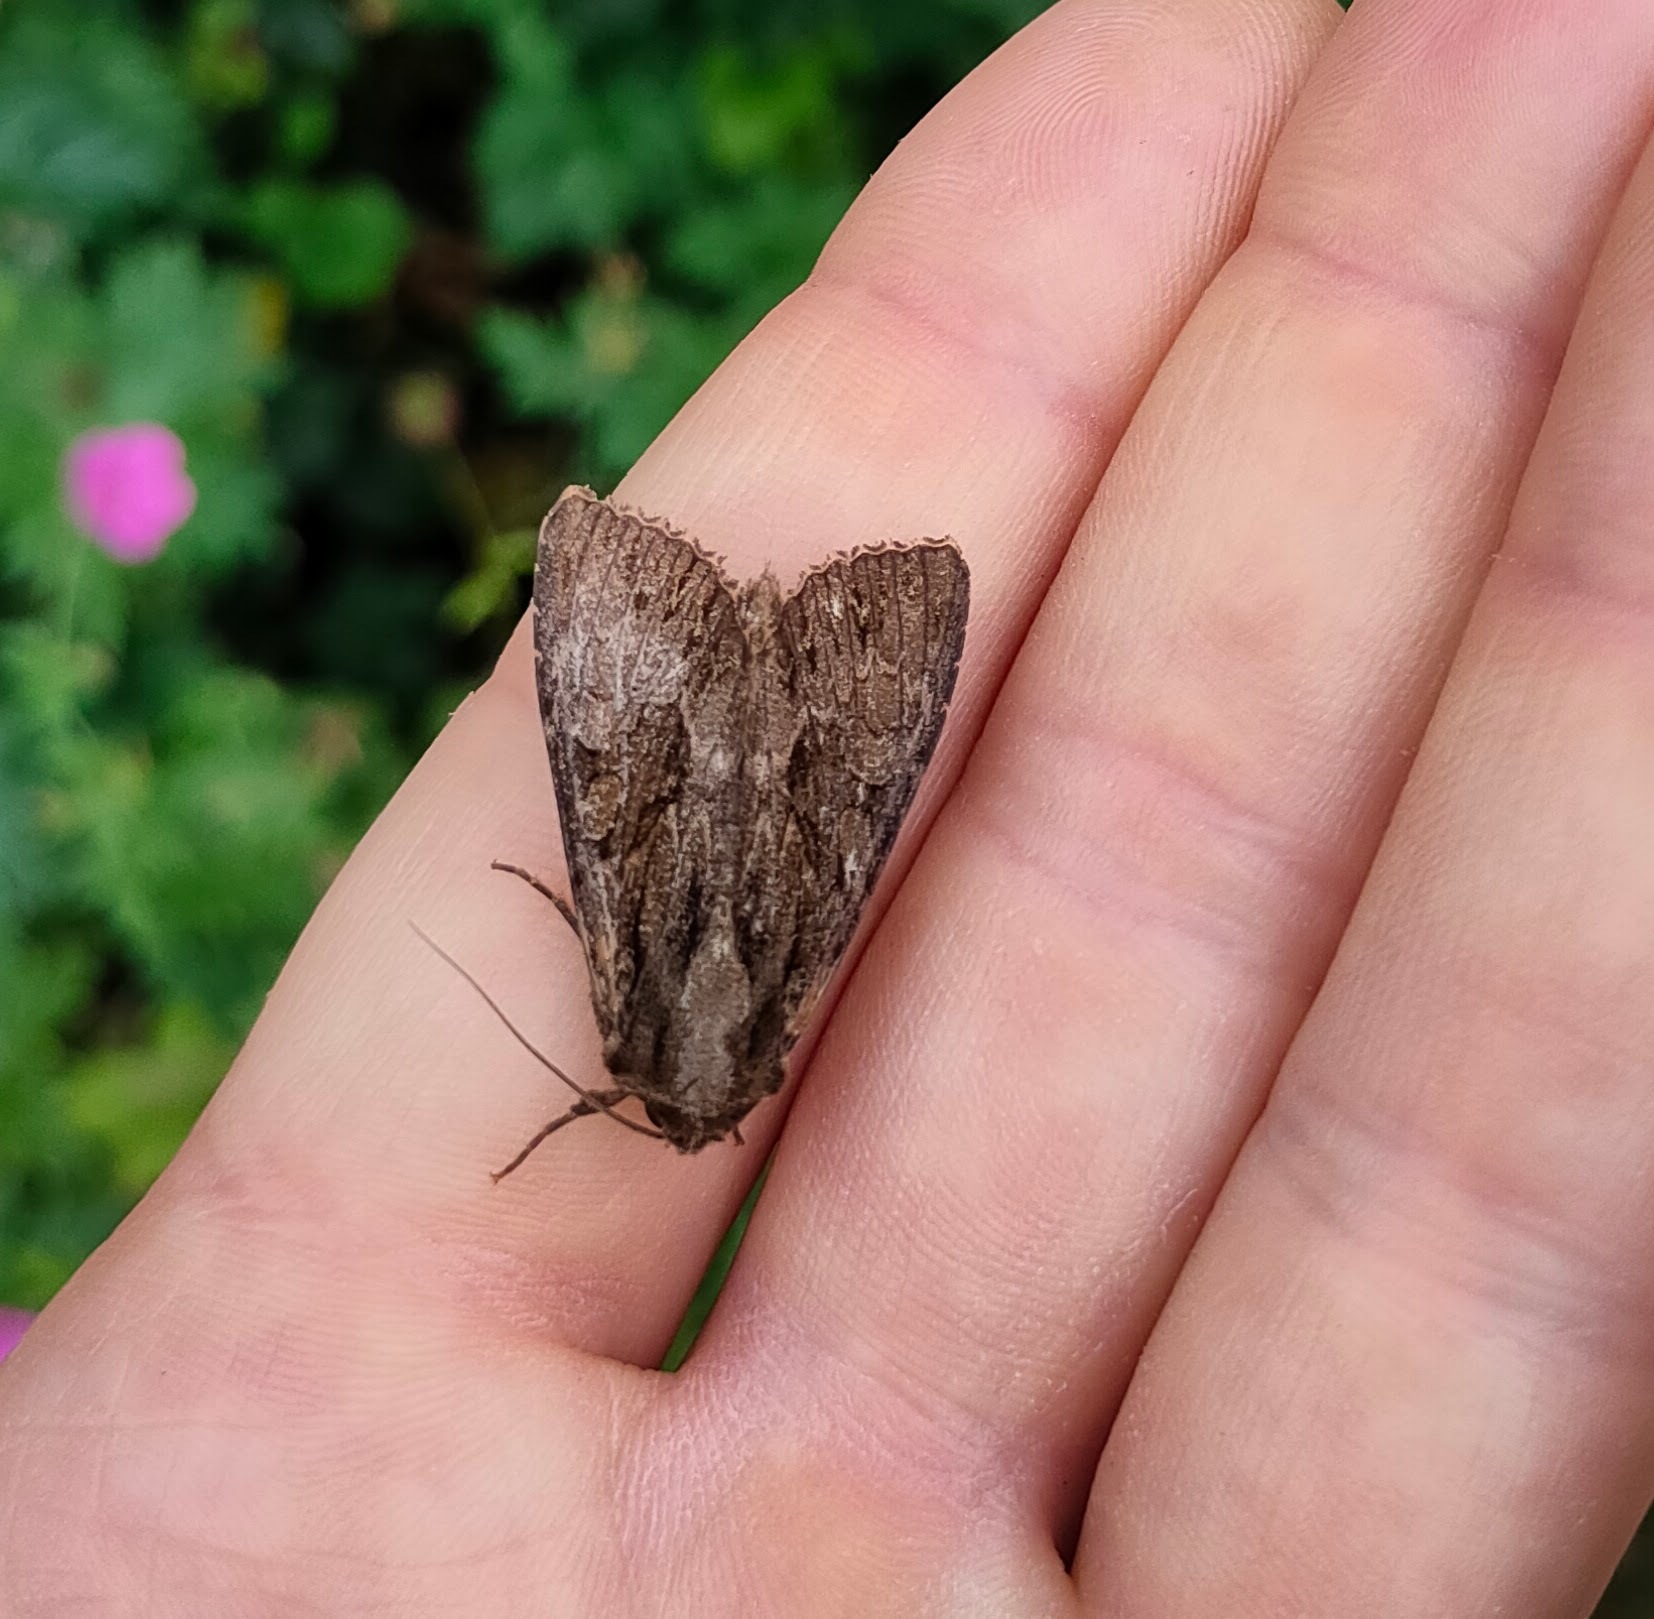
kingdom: Animalia
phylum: Arthropoda
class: Insecta
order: Lepidoptera
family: Noctuidae
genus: Apamea
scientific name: Apamea monoglypha
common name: Dark arches
